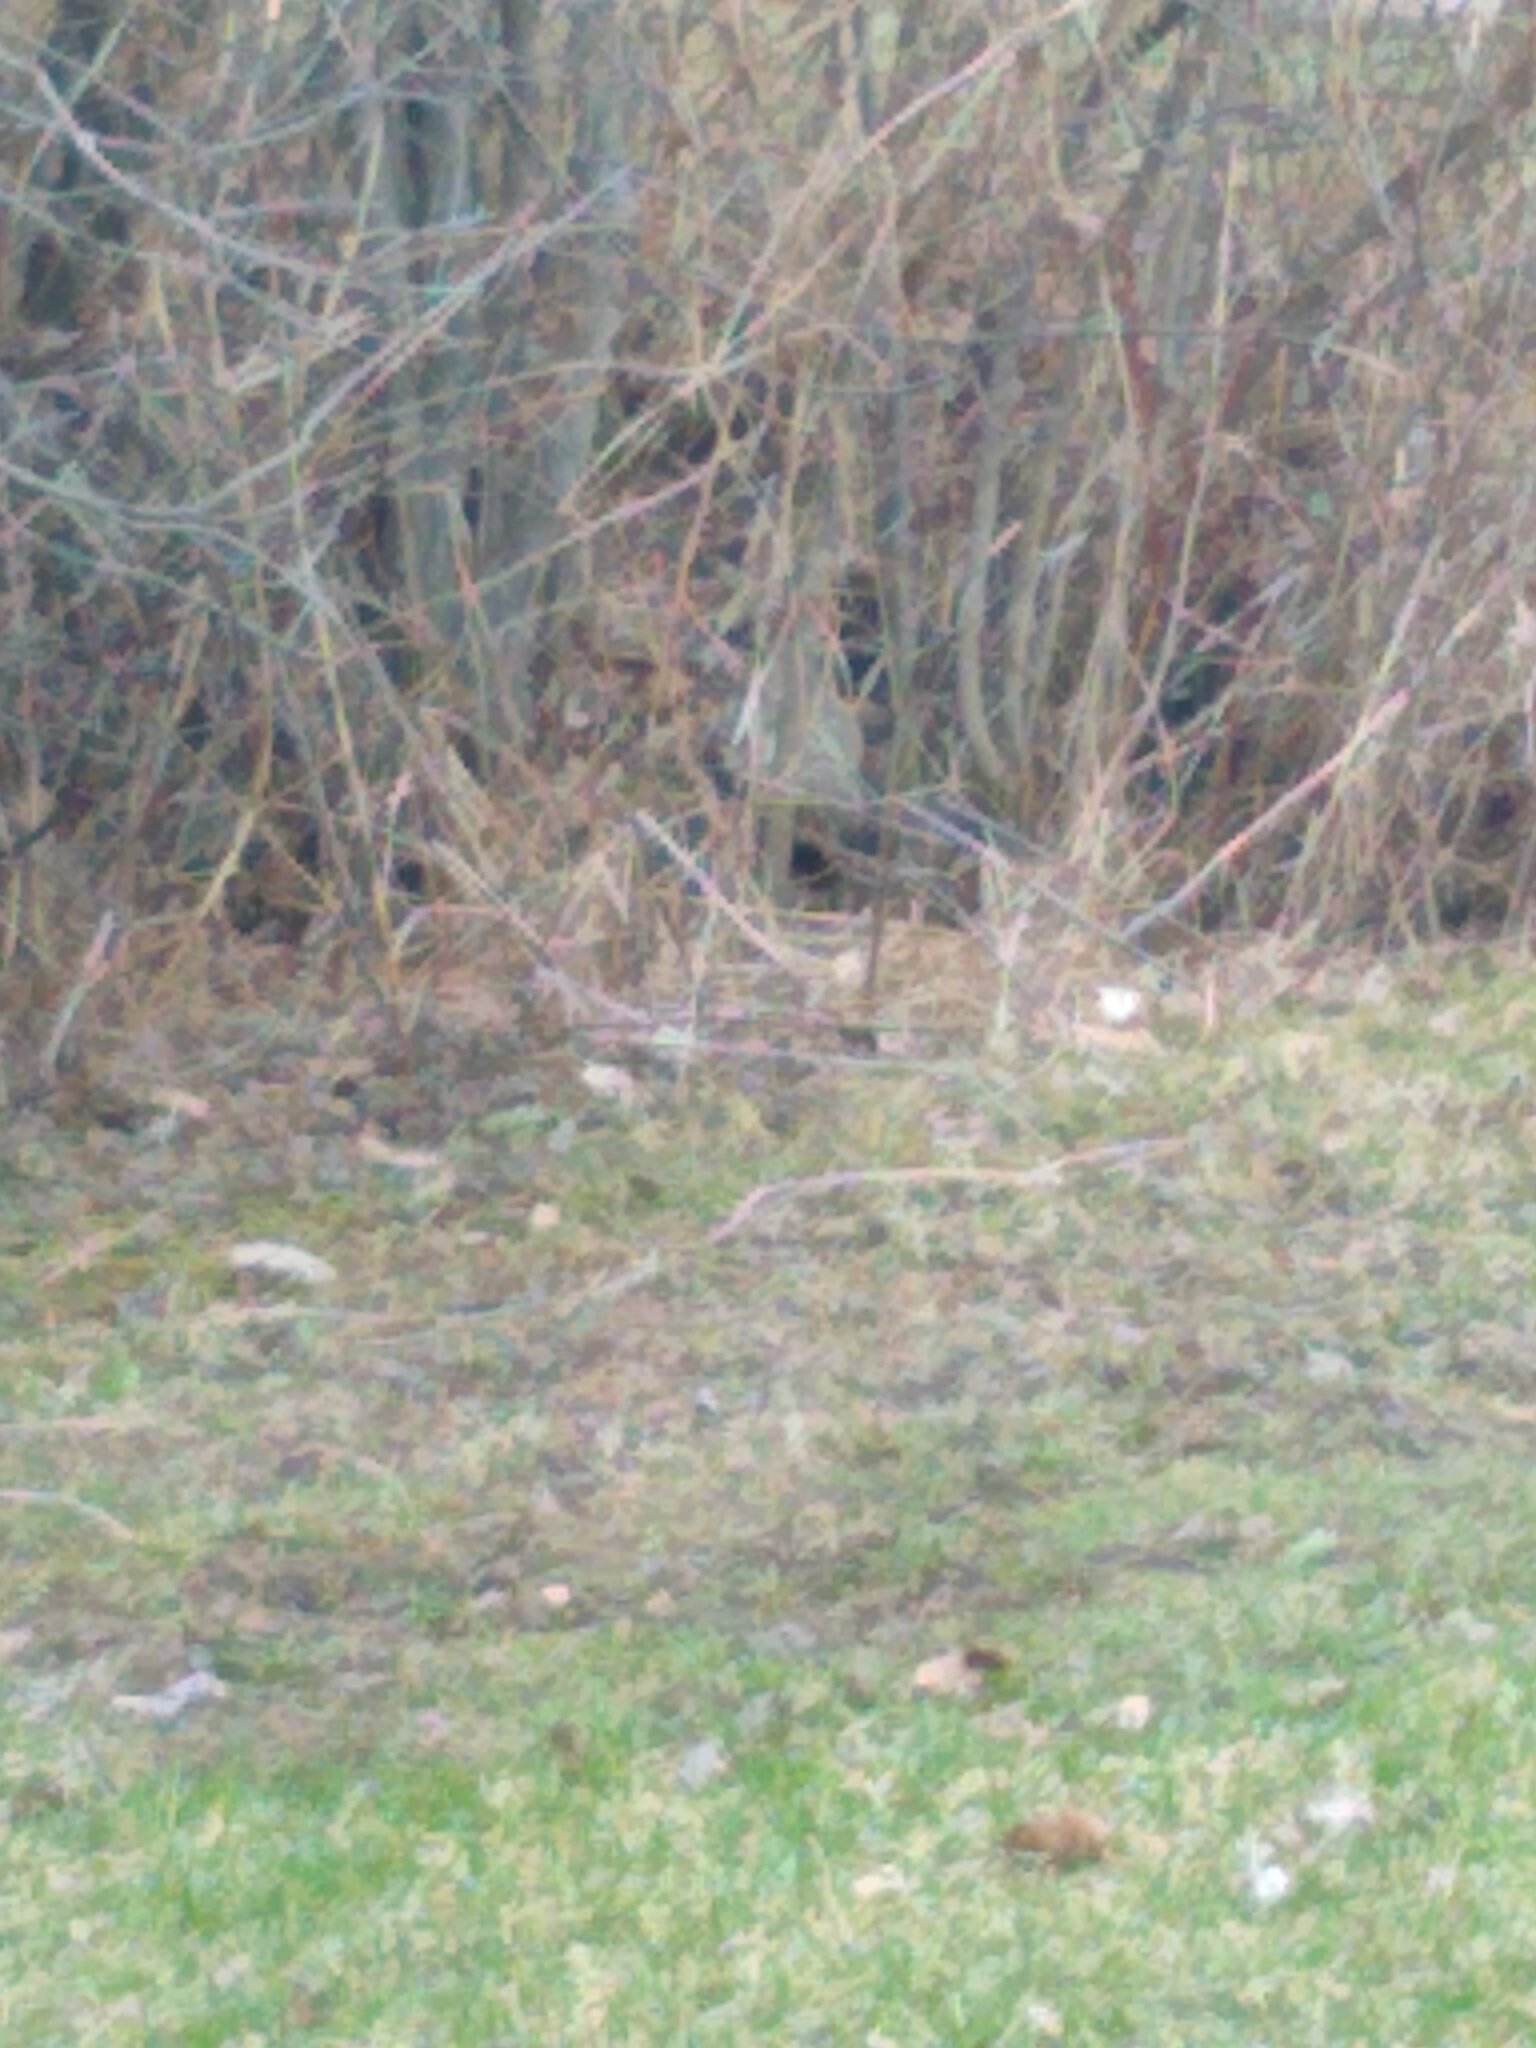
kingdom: Animalia
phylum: Chordata
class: Mammalia
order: Rodentia
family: Sciuridae
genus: Marmota
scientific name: Marmota monax
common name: Groundhog
